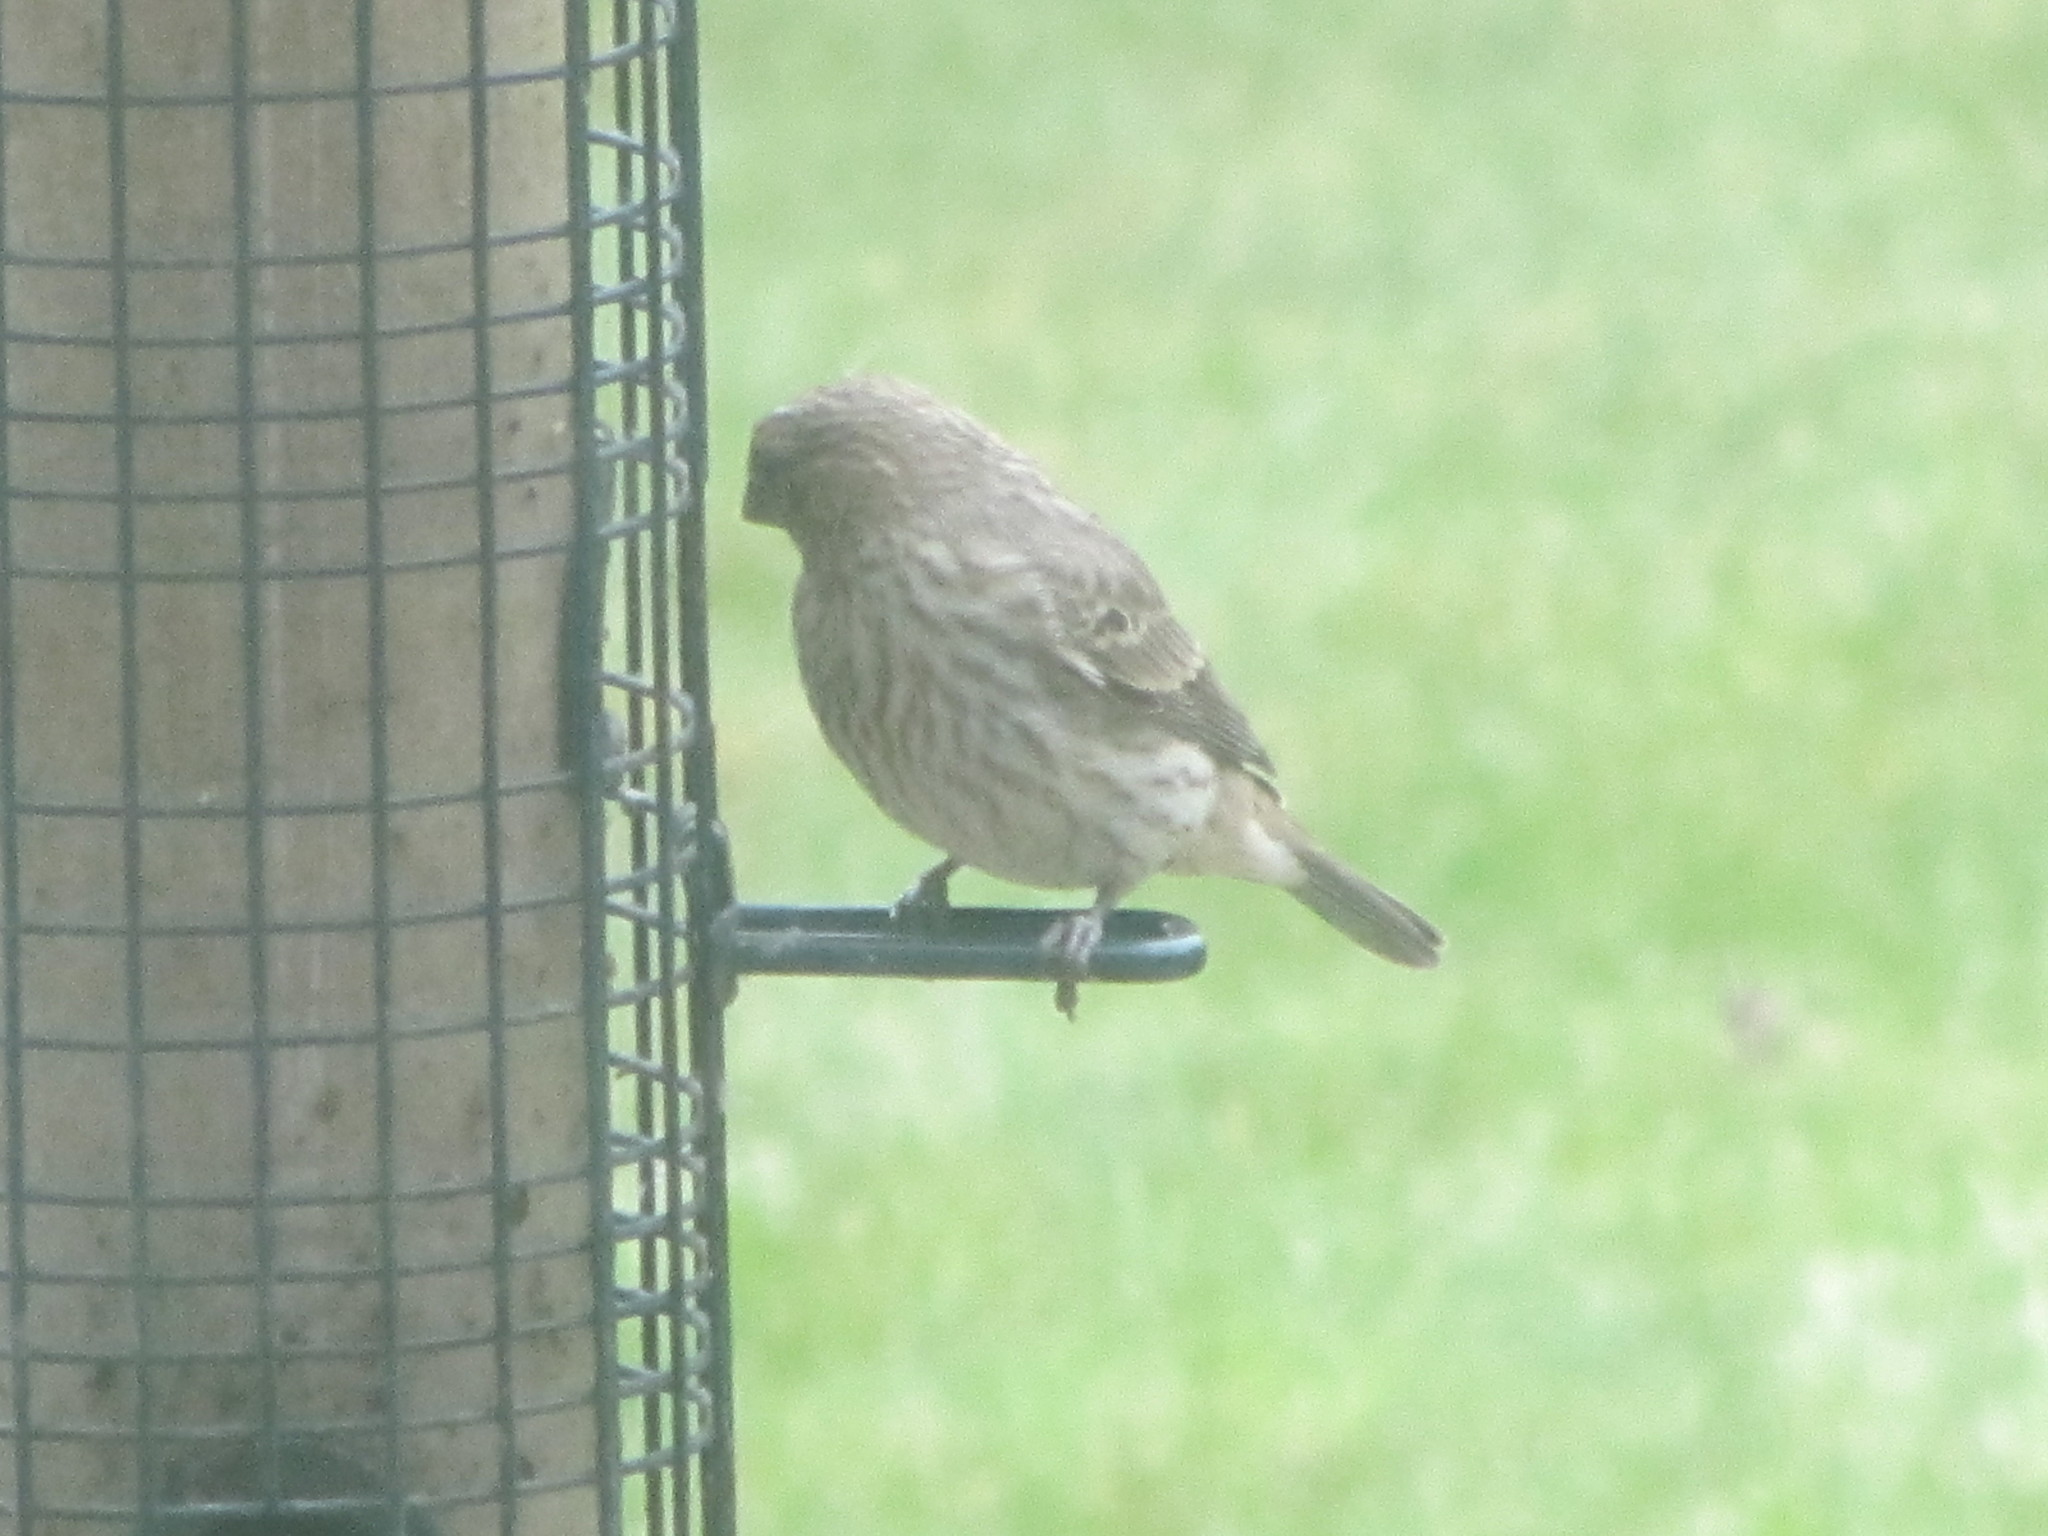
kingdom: Animalia
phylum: Chordata
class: Aves
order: Passeriformes
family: Fringillidae
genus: Haemorhous
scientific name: Haemorhous mexicanus
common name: House finch
